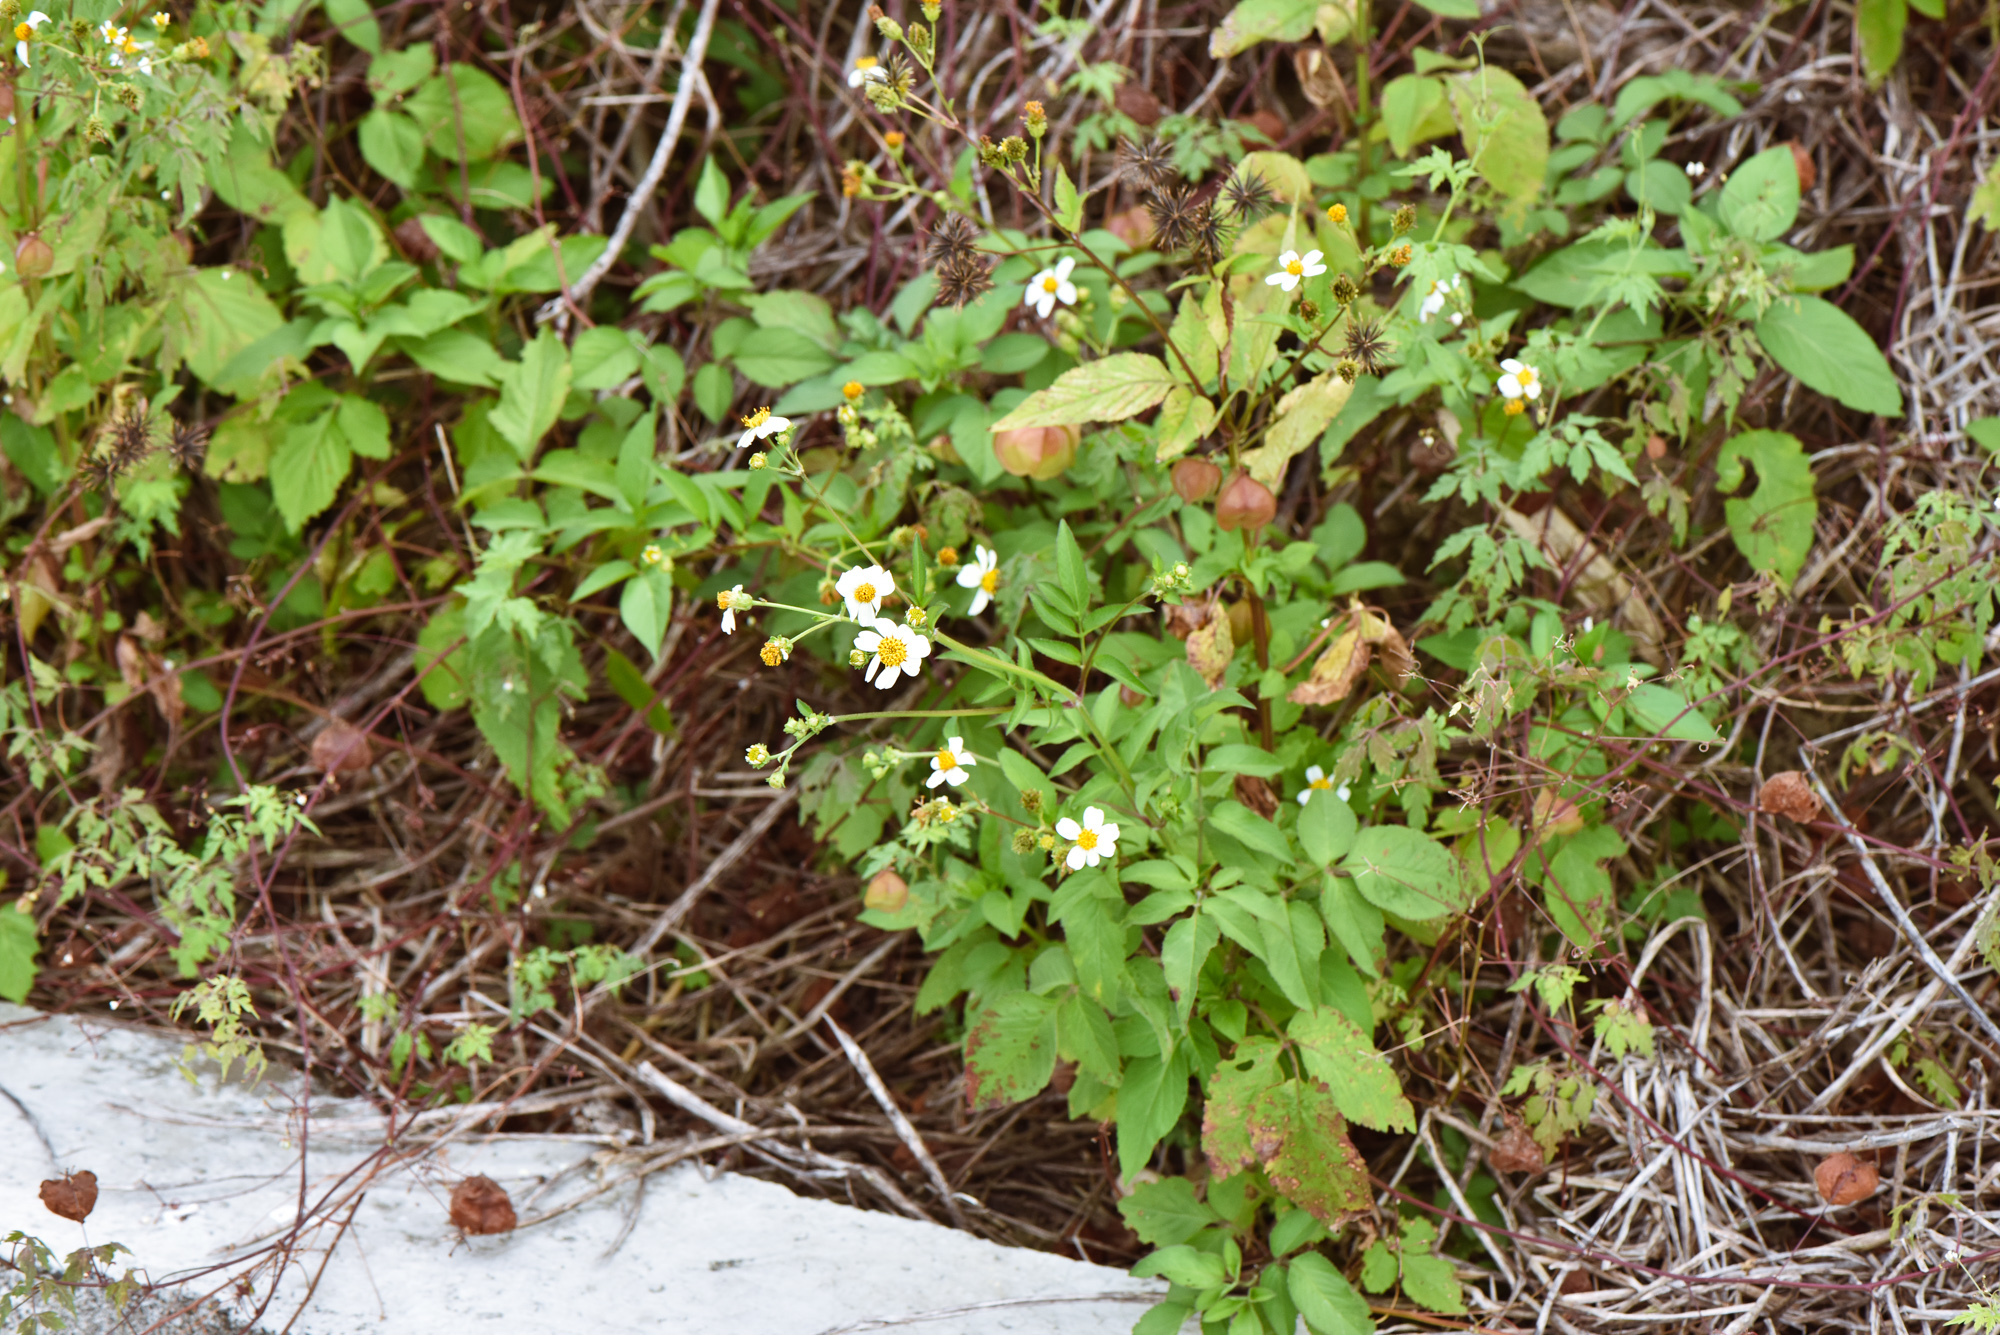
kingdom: Plantae
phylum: Tracheophyta
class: Magnoliopsida
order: Asterales
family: Asteraceae
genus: Bidens
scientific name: Bidens alba
